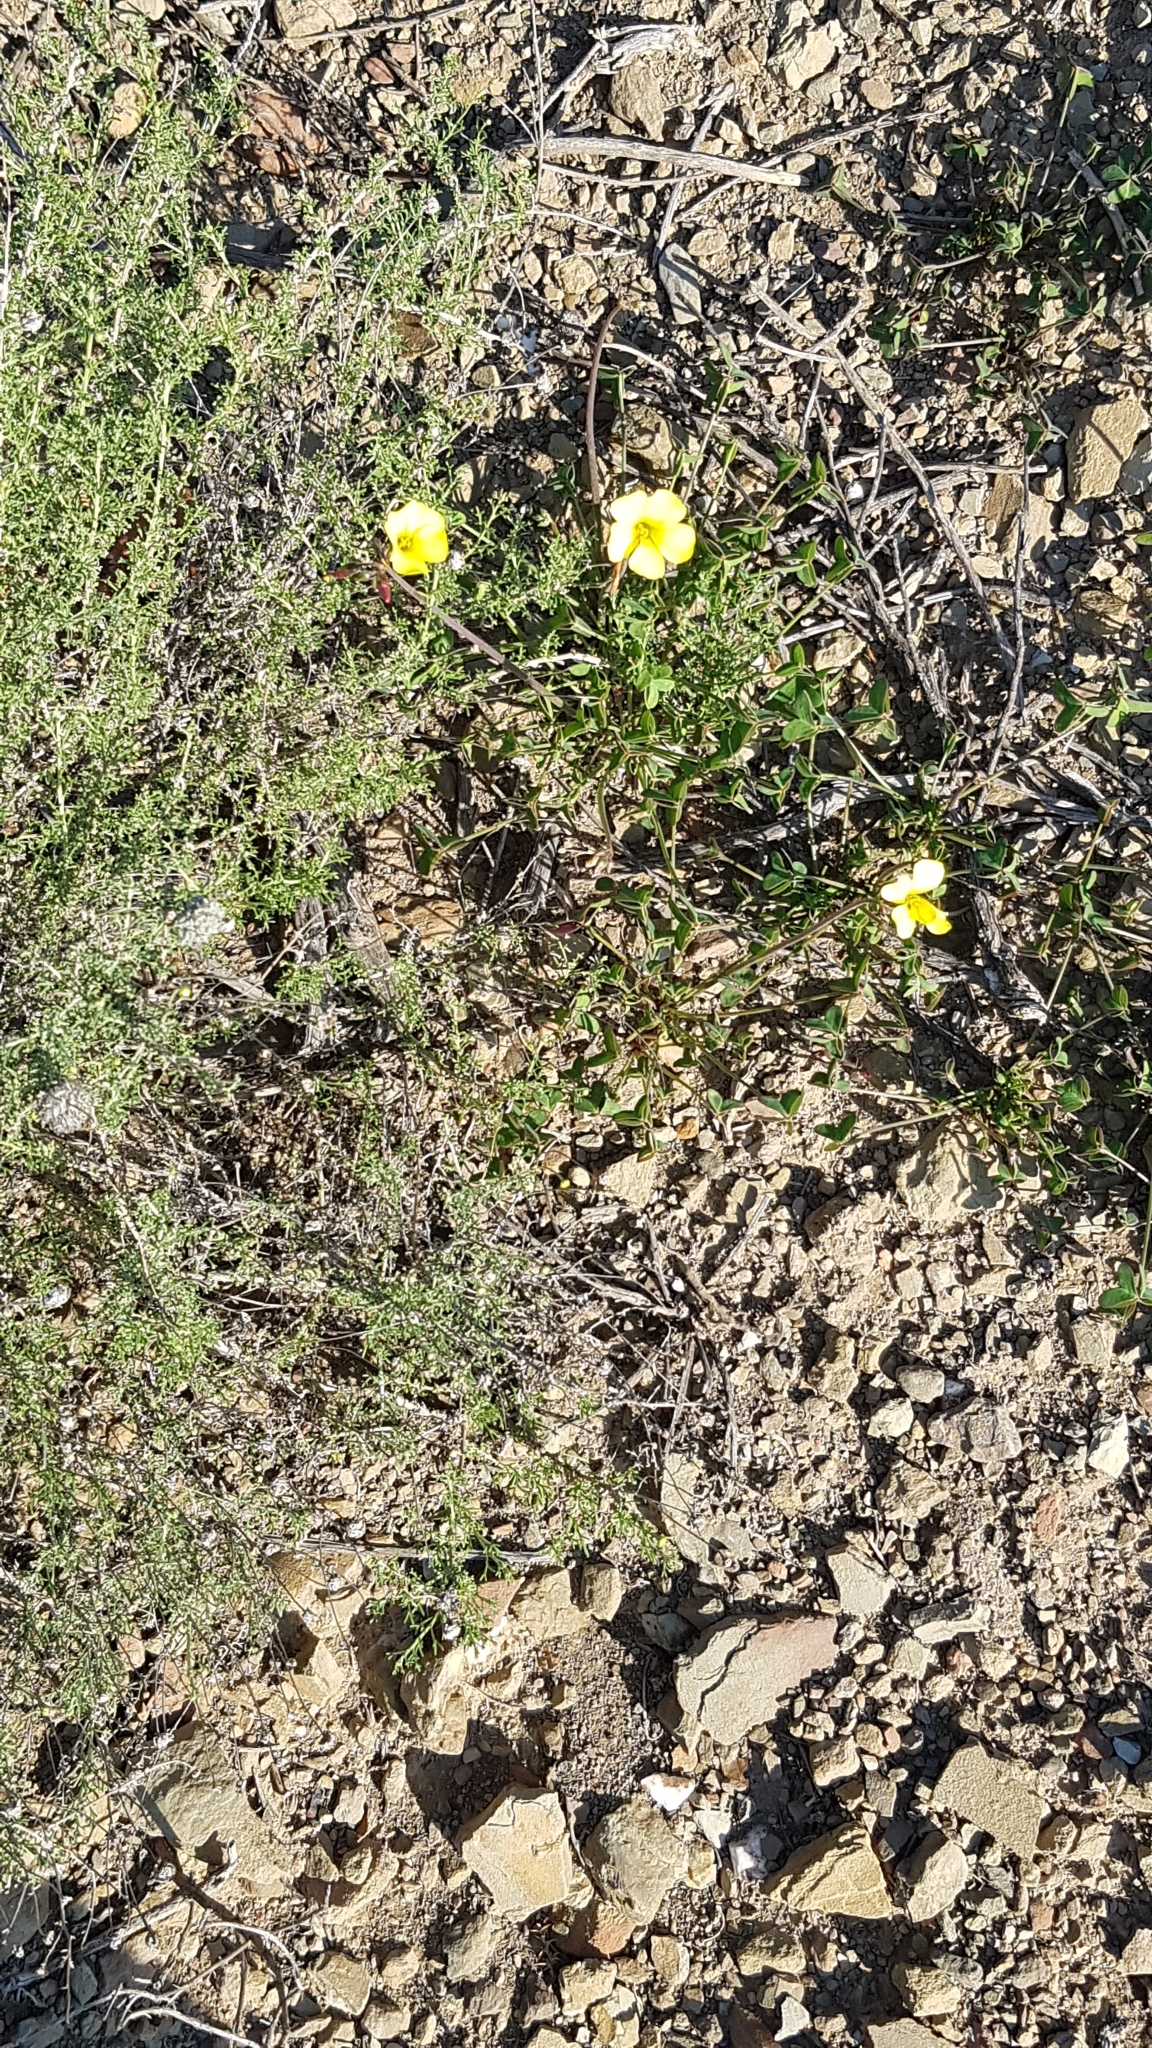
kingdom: Plantae
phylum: Tracheophyta
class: Magnoliopsida
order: Oxalidales
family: Oxalidaceae
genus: Oxalis
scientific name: Oxalis pes-caprae
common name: Bermuda-buttercup
